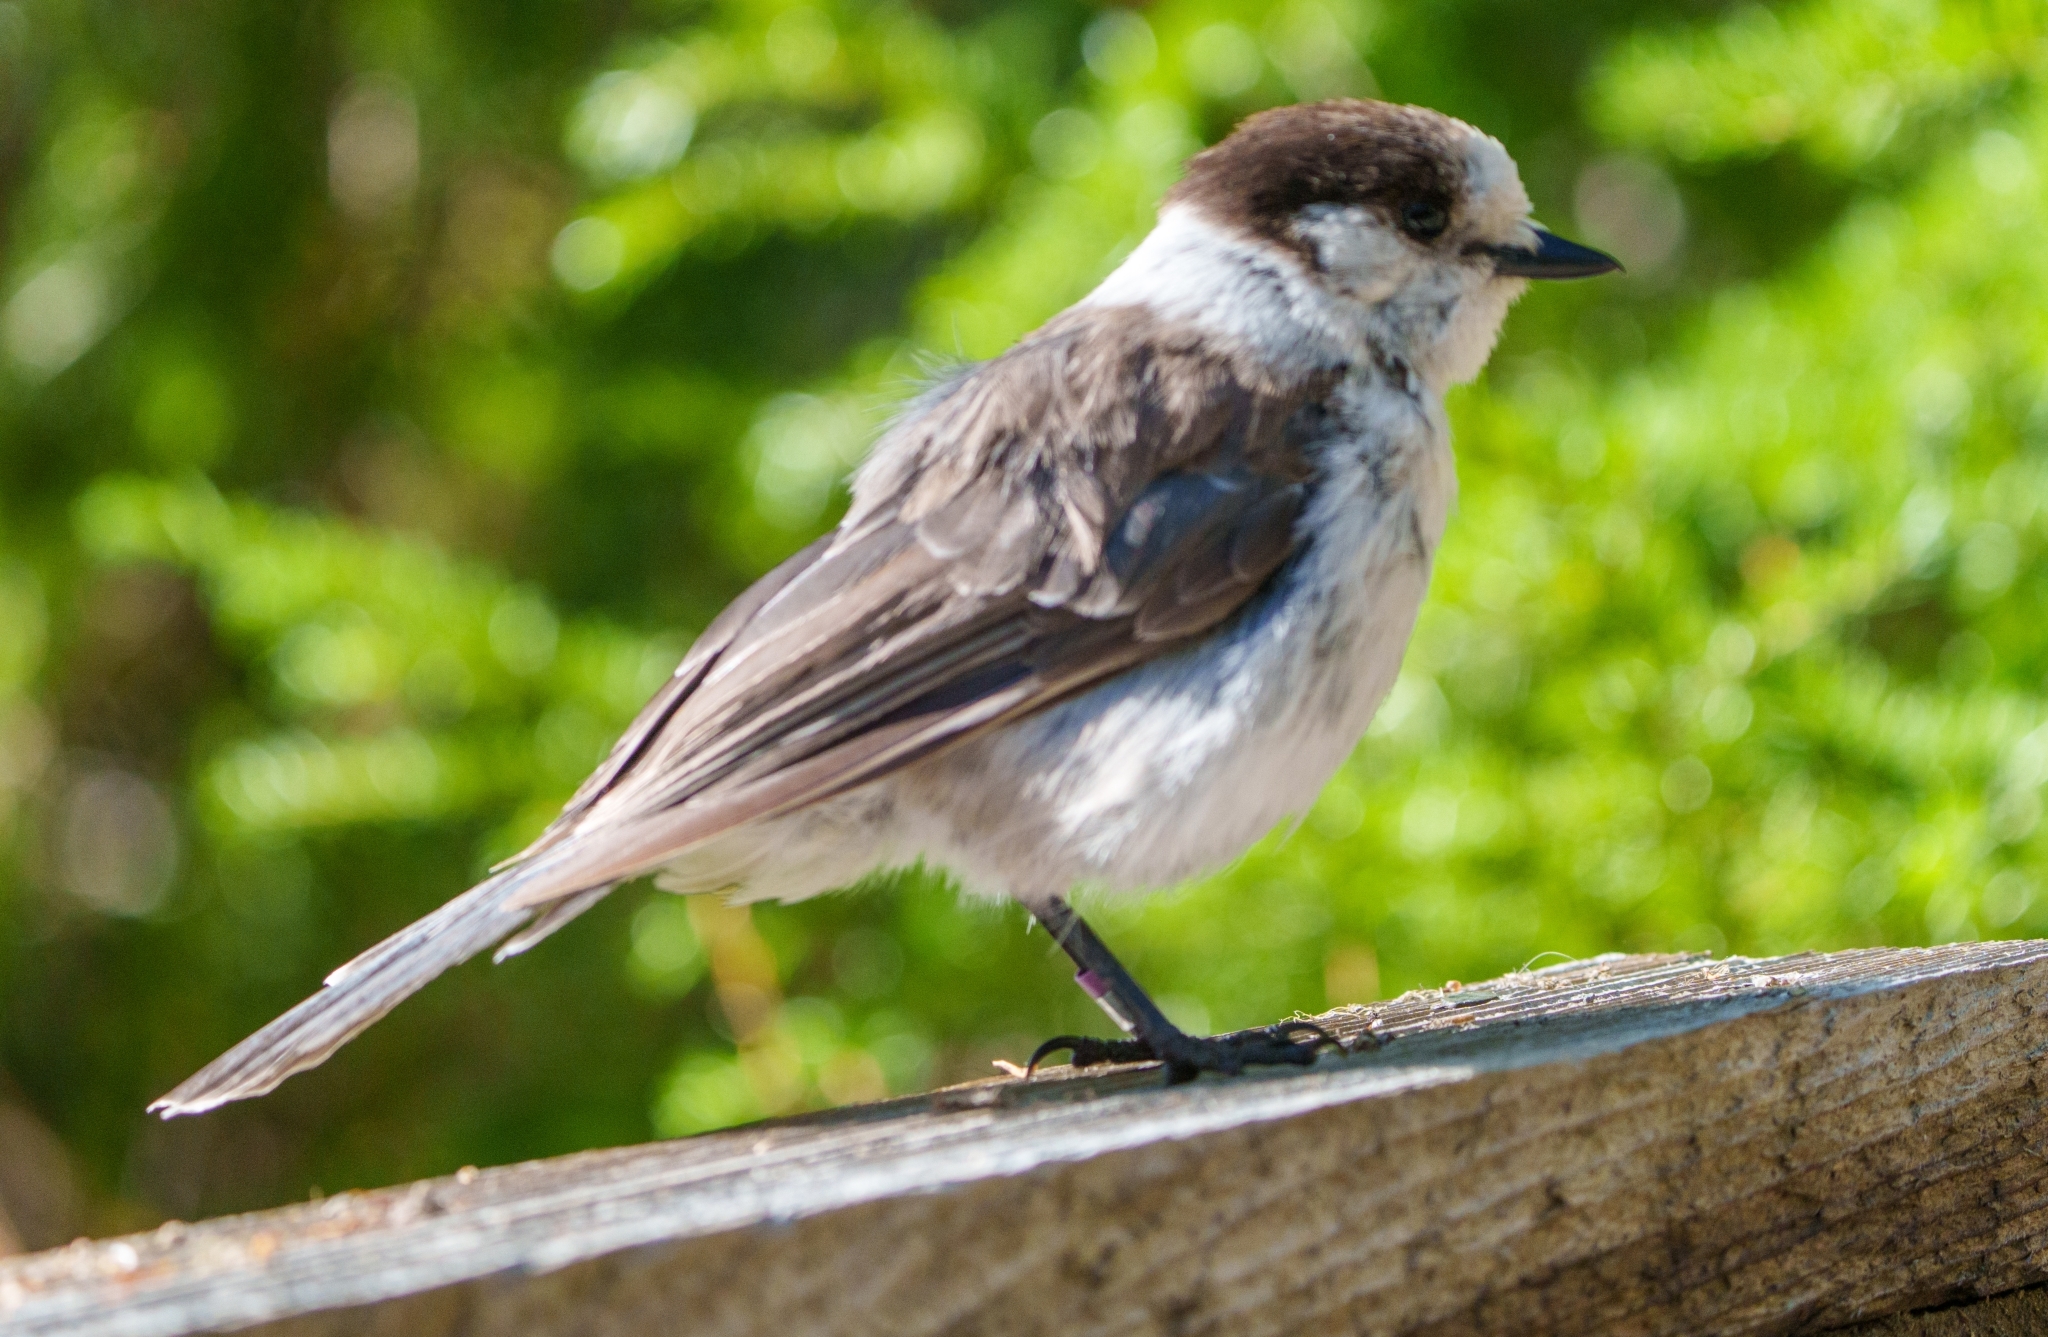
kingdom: Animalia
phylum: Chordata
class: Aves
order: Passeriformes
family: Corvidae
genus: Perisoreus
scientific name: Perisoreus canadensis
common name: Gray jay
